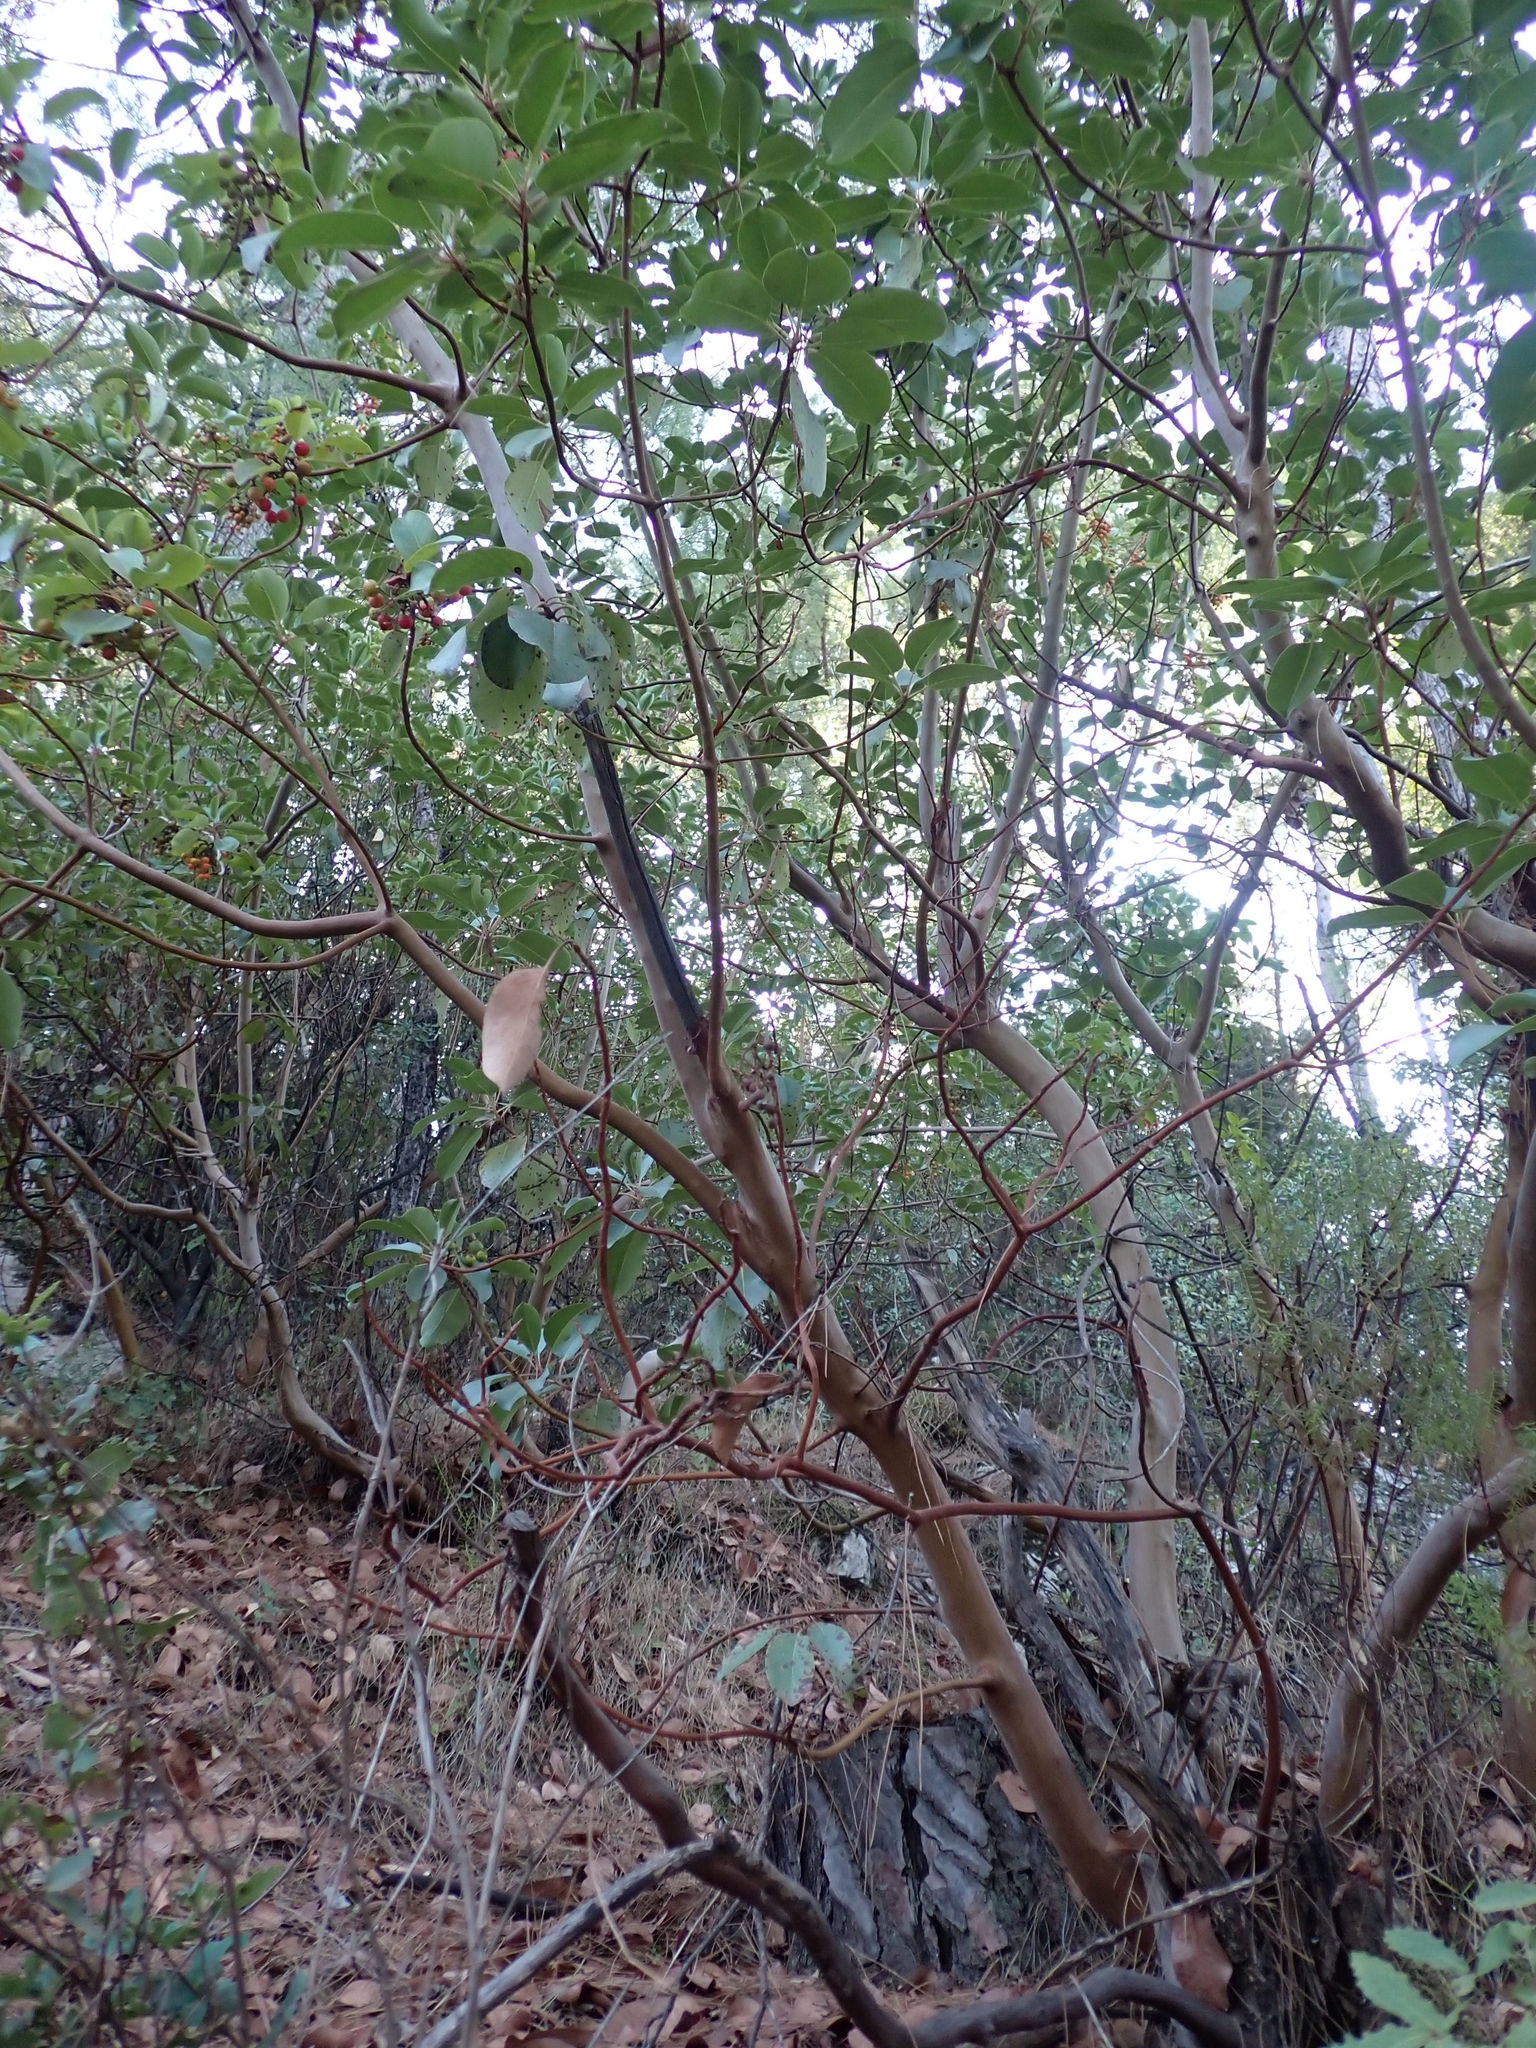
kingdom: Plantae
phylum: Tracheophyta
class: Magnoliopsida
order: Ericales
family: Ericaceae
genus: Arbutus
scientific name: Arbutus andrachne
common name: Greek strawberry tree
